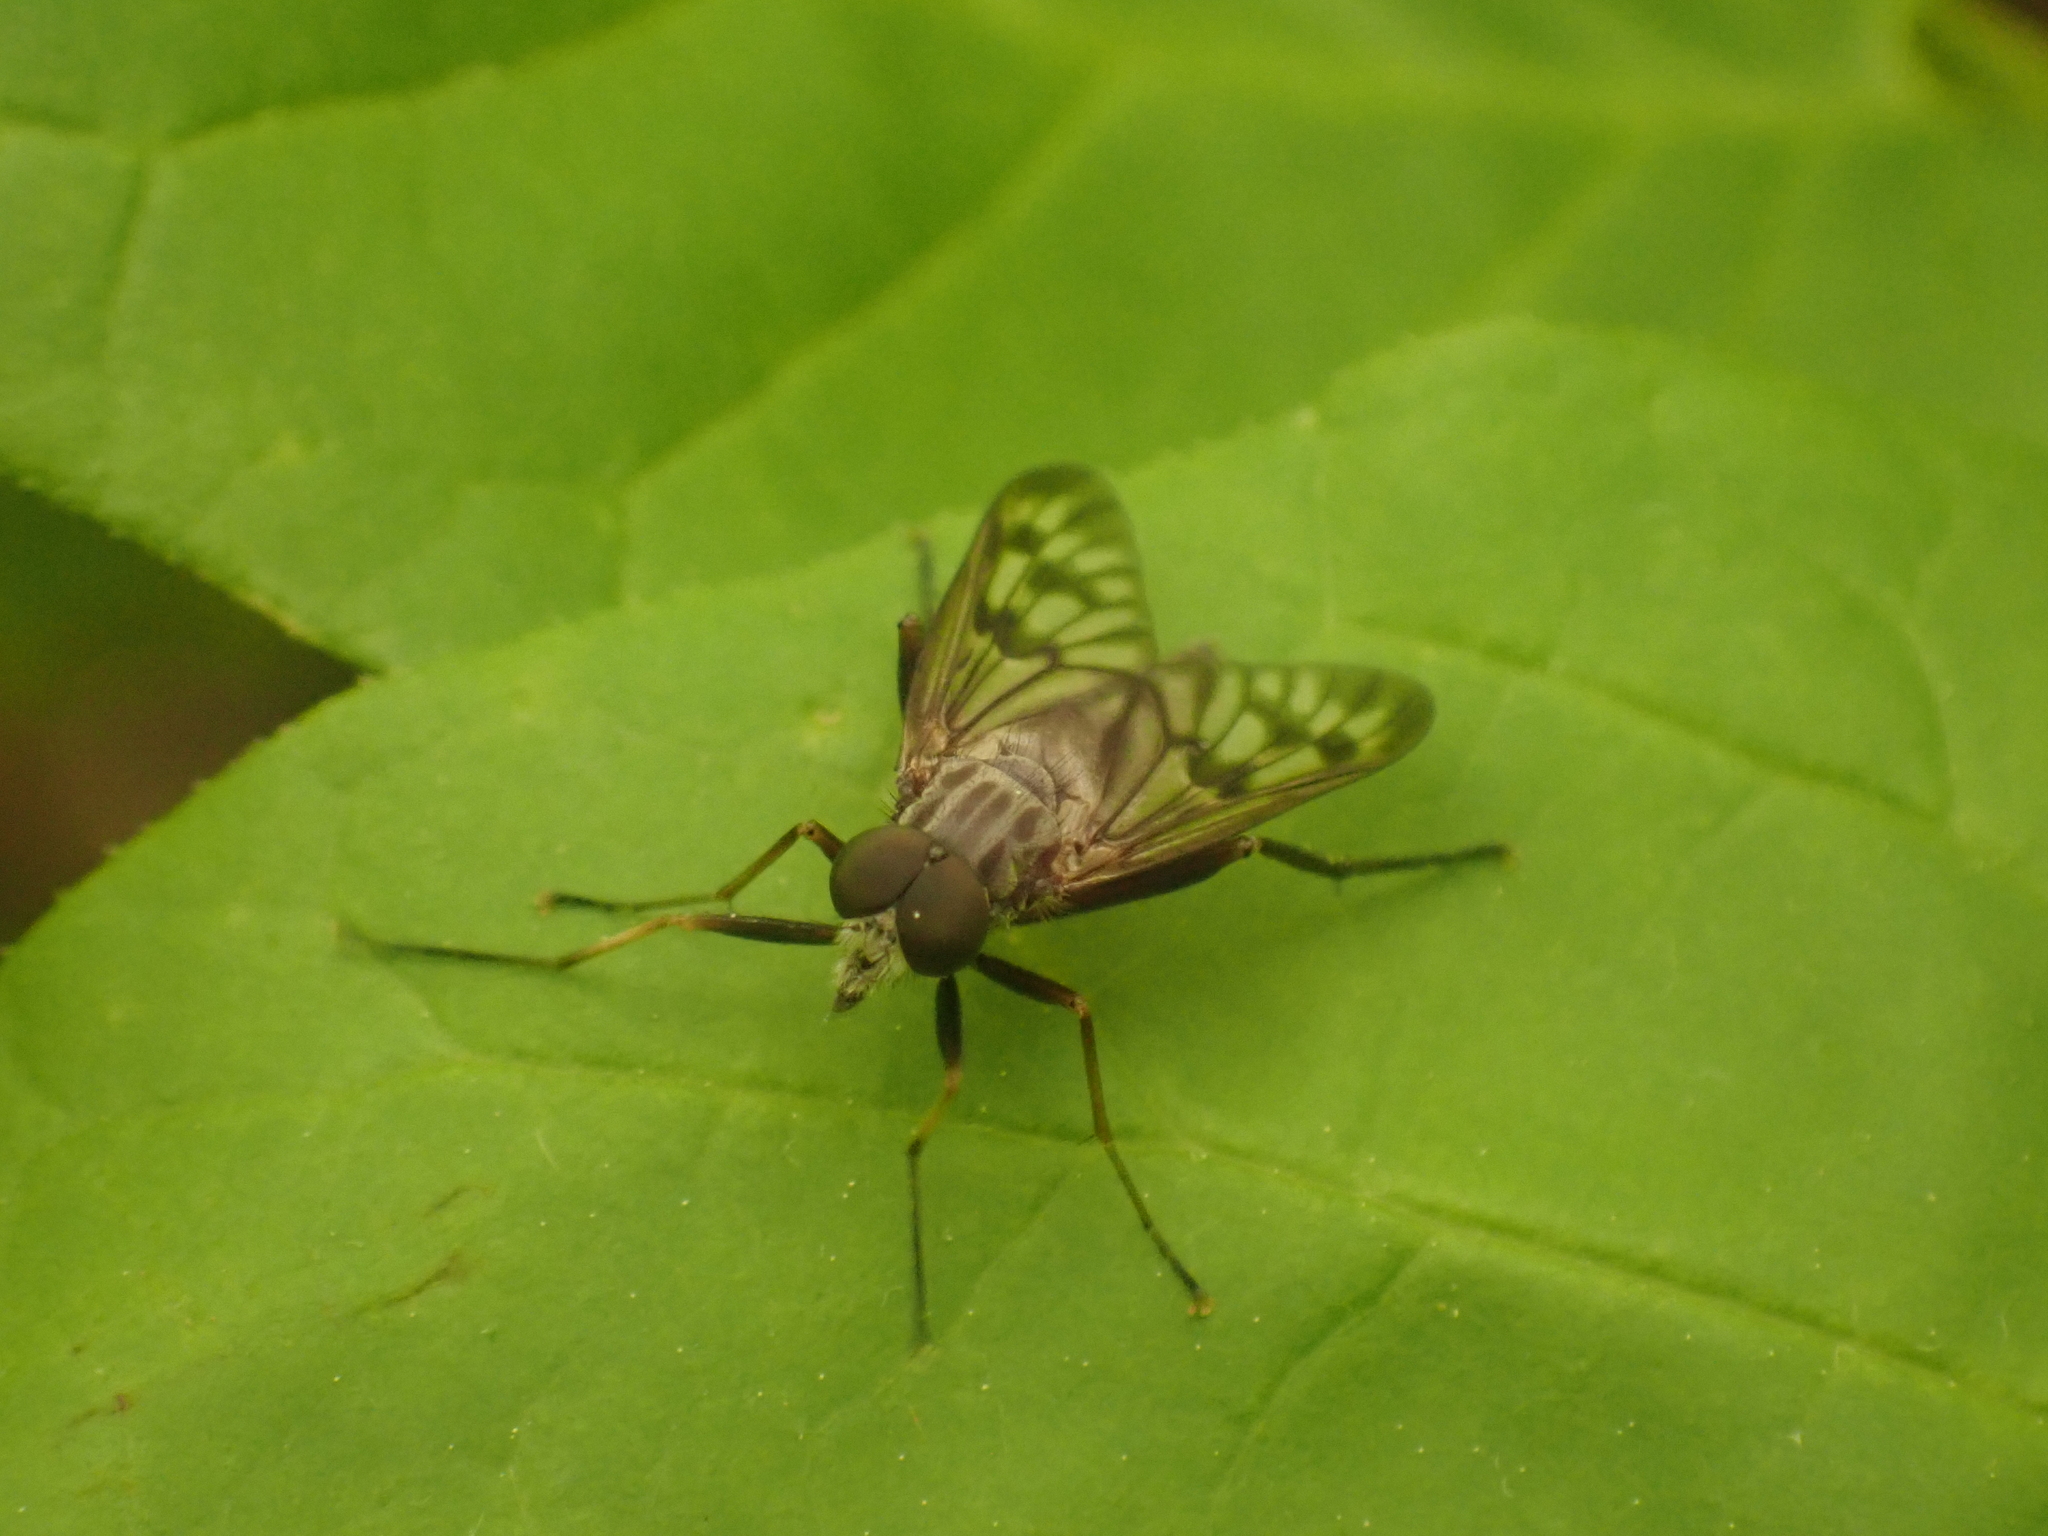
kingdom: Animalia
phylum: Arthropoda
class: Insecta
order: Diptera
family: Rhagionidae
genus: Rhagio
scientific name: Rhagio mystaceus
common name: Common snipe fly
